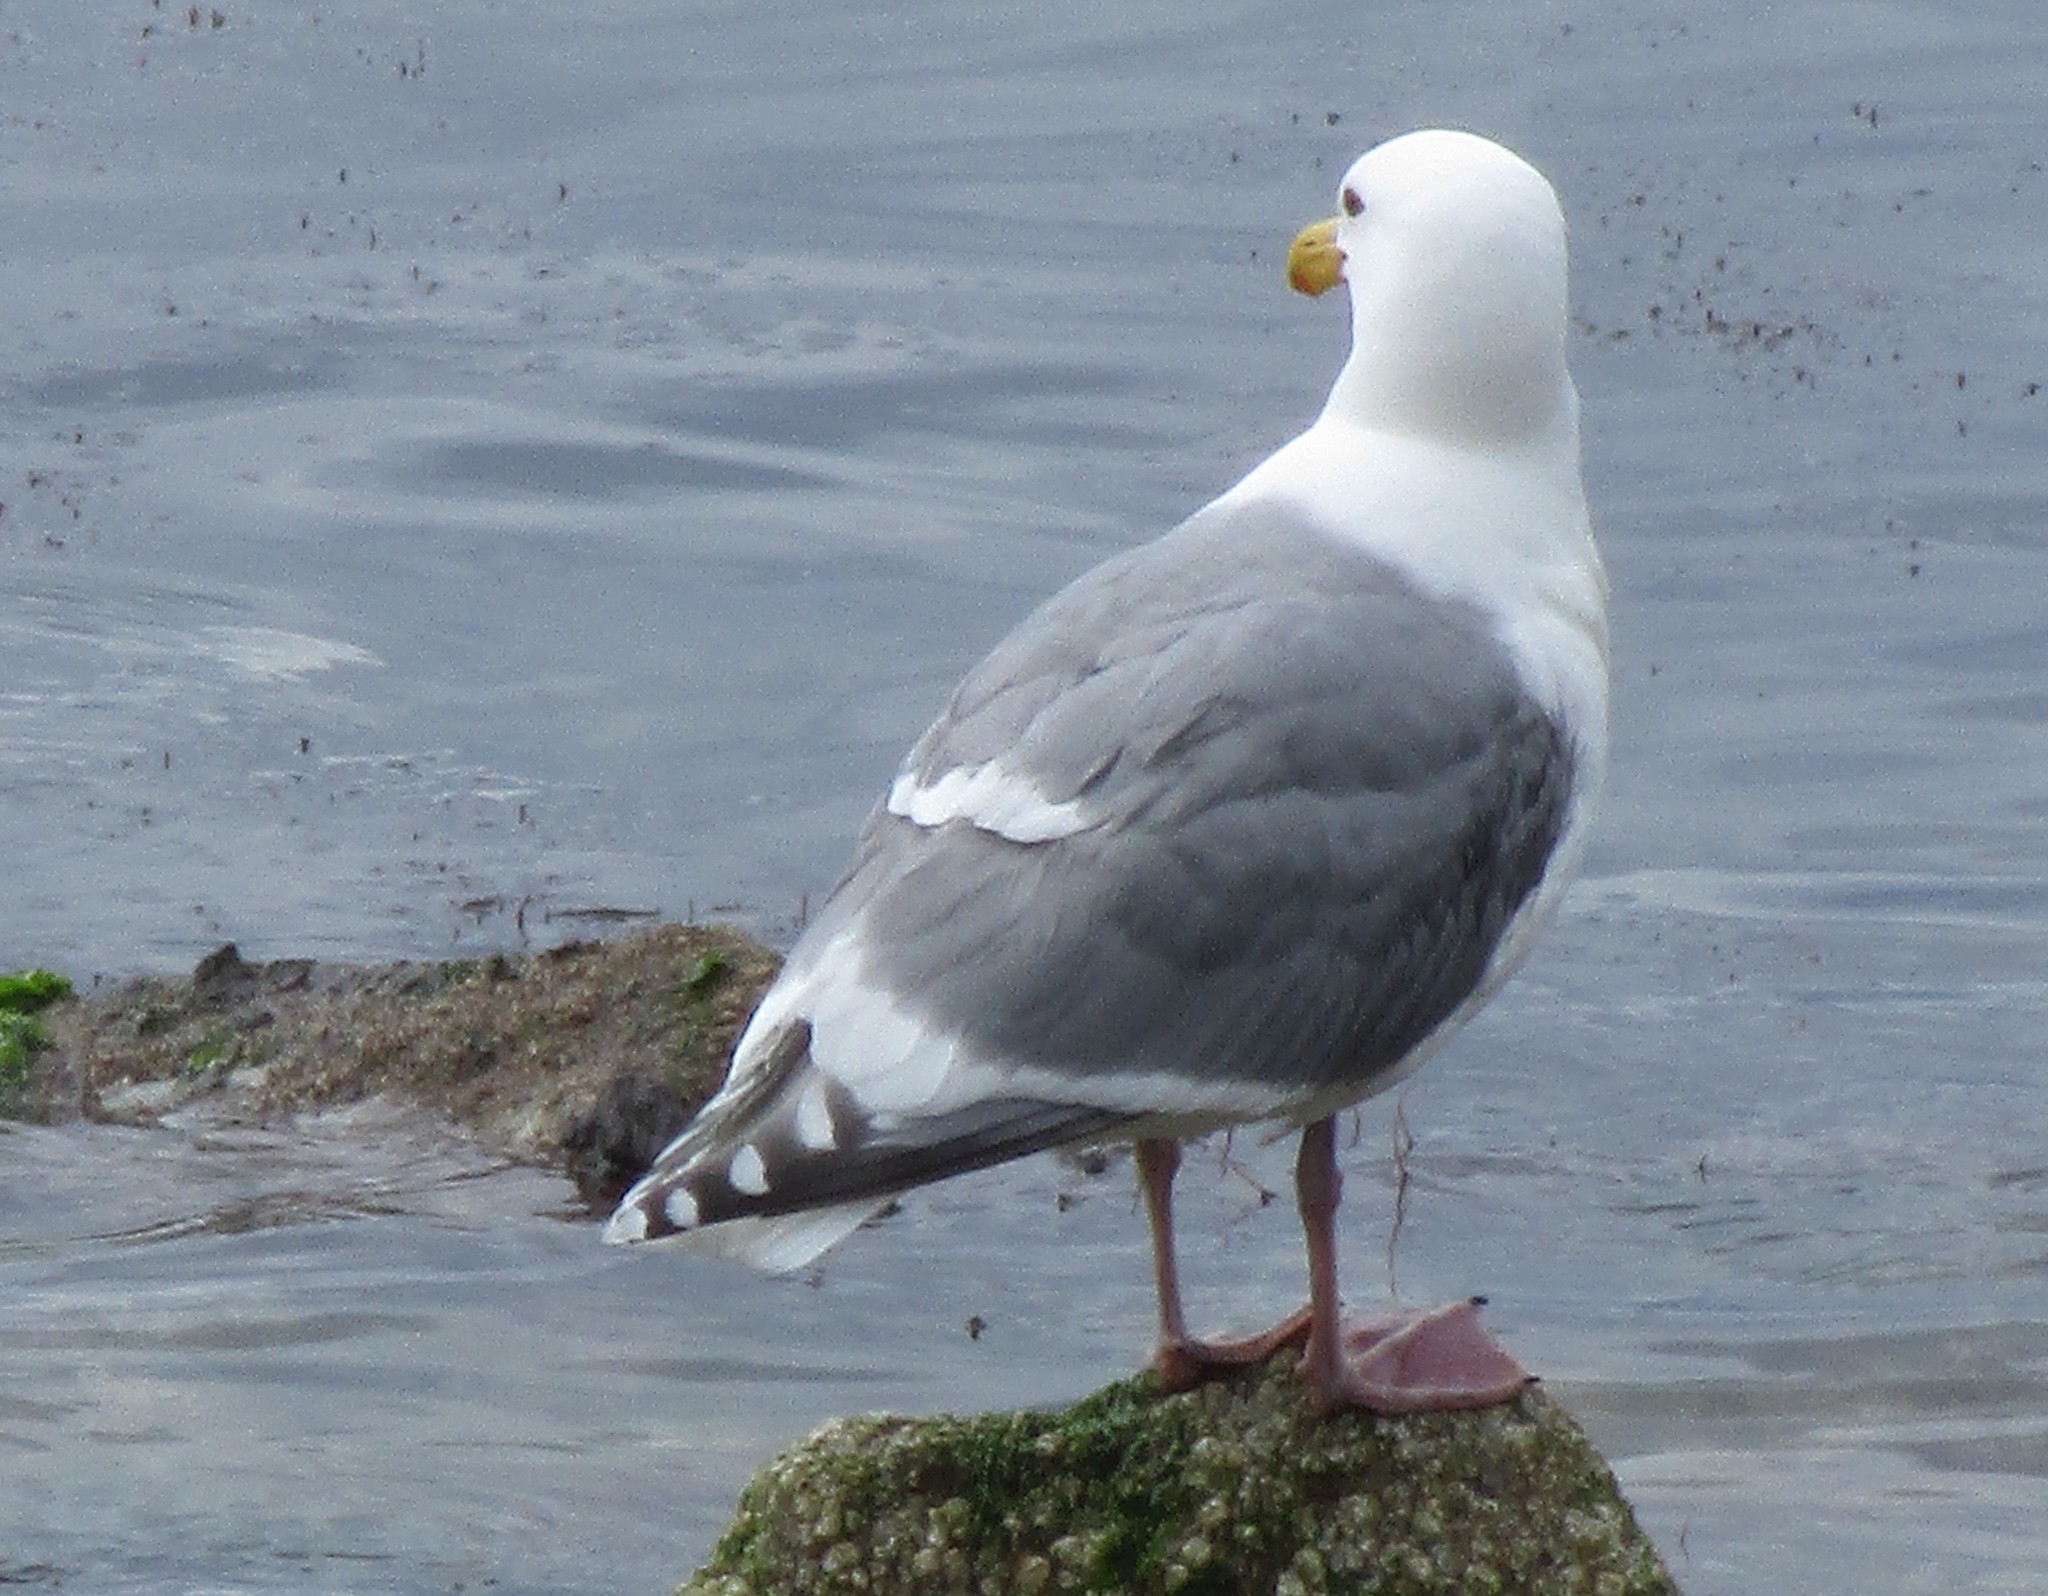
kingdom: Animalia
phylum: Chordata
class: Aves
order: Charadriiformes
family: Laridae
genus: Larus
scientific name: Larus
